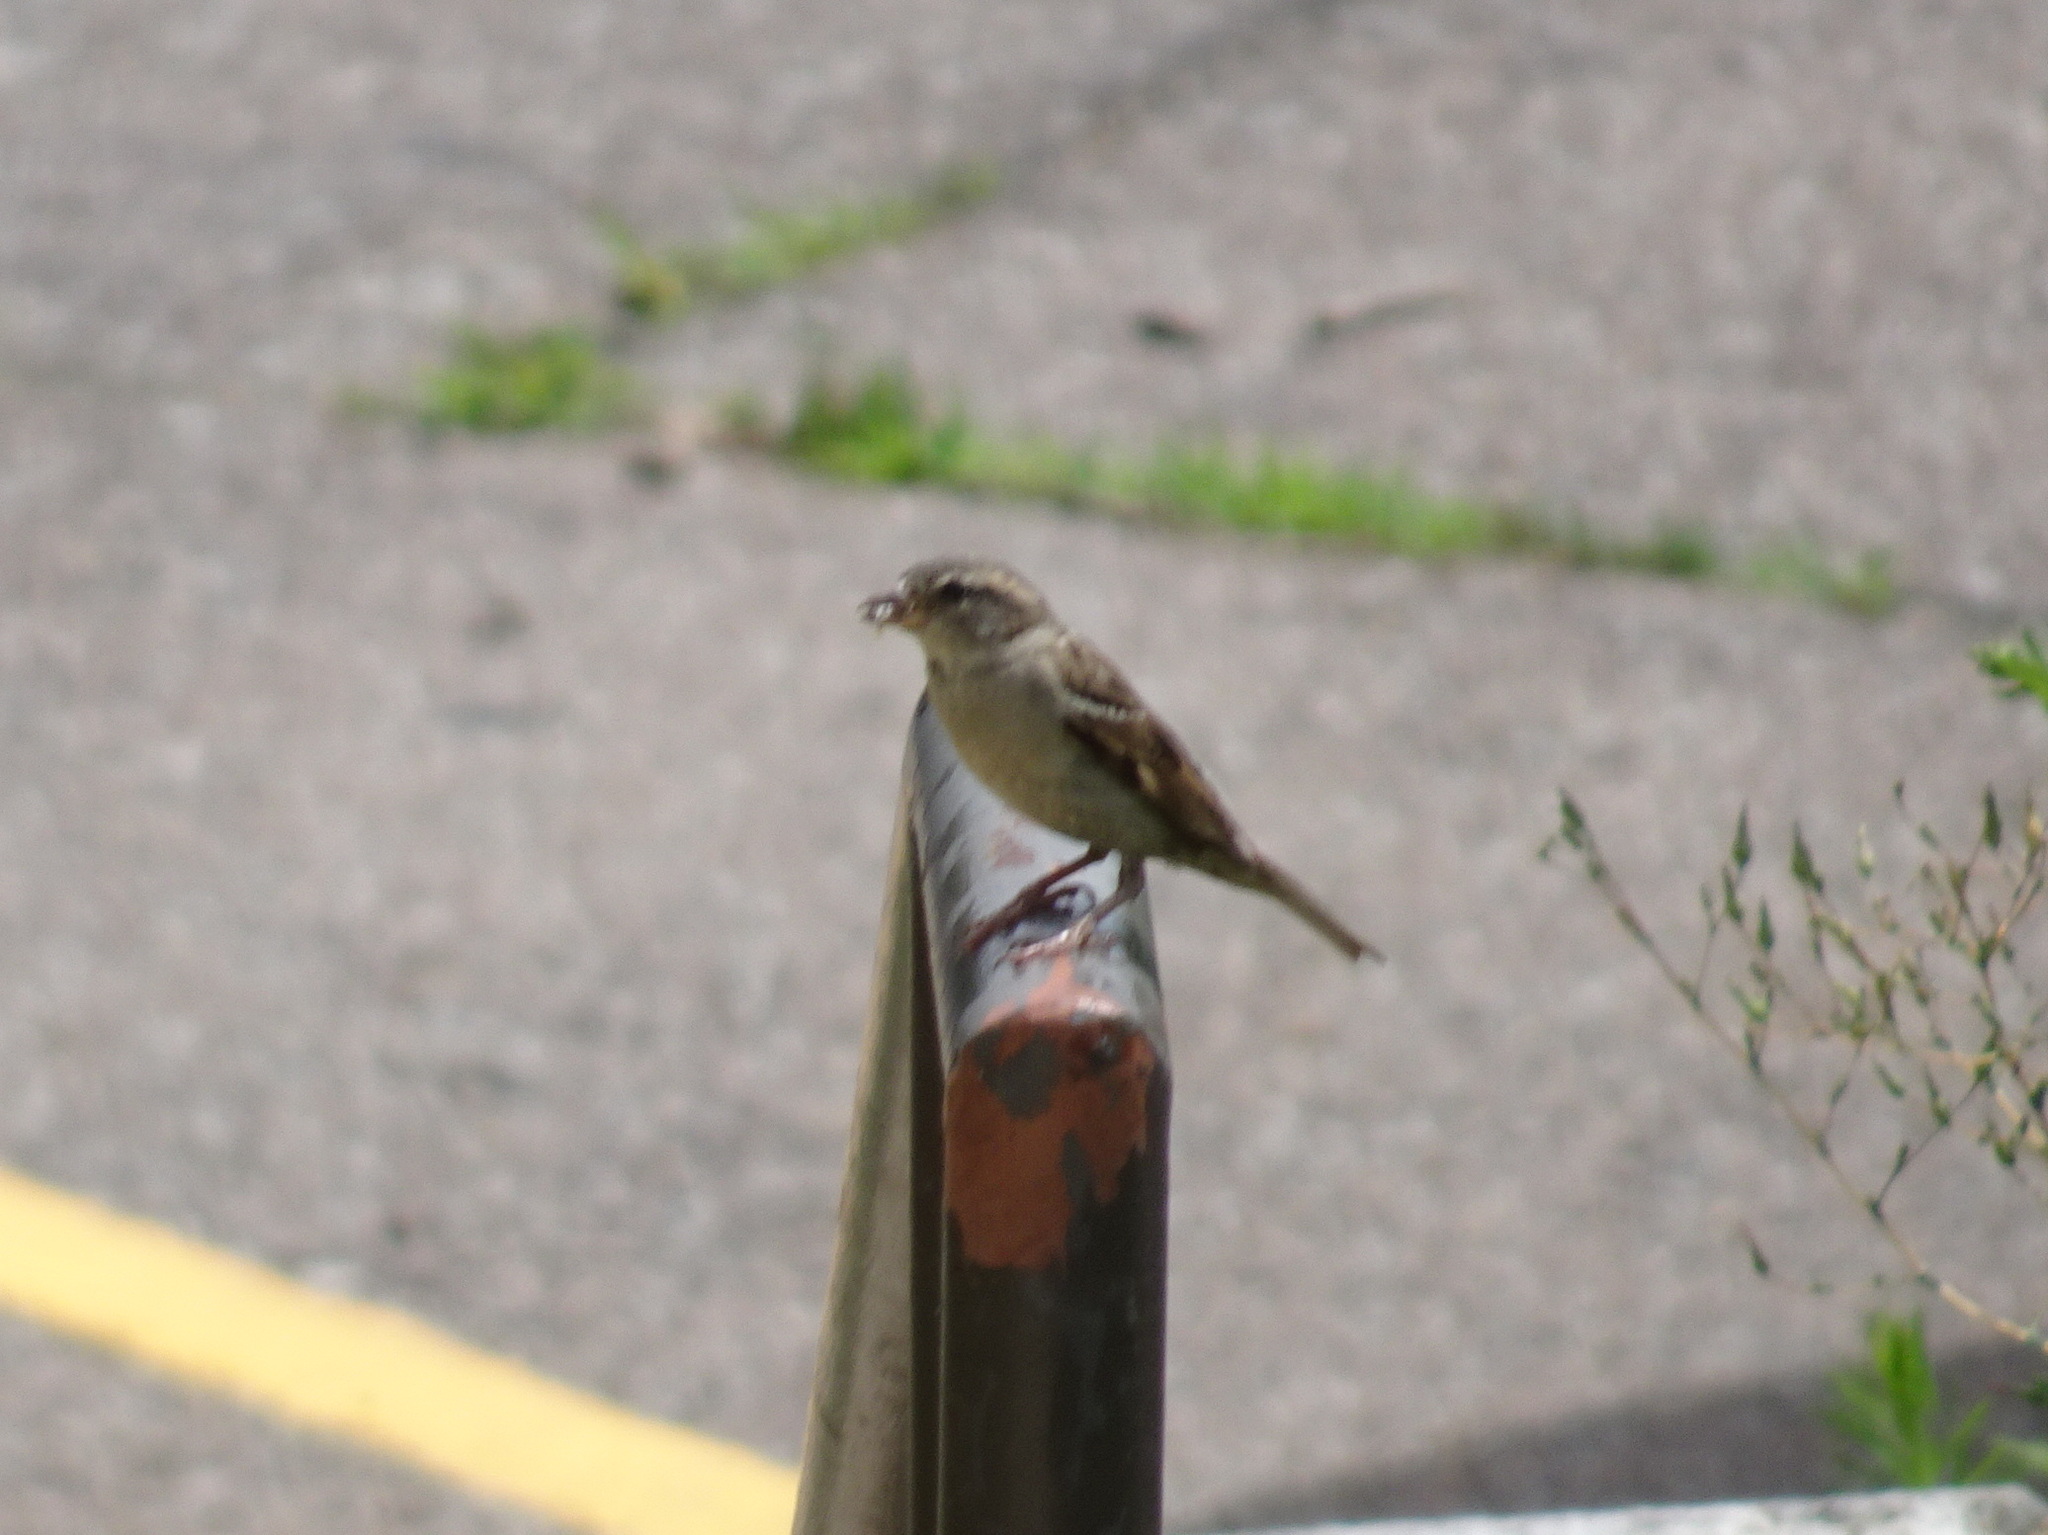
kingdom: Animalia
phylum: Chordata
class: Aves
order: Passeriformes
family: Passeridae
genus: Passer
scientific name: Passer domesticus
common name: House sparrow
